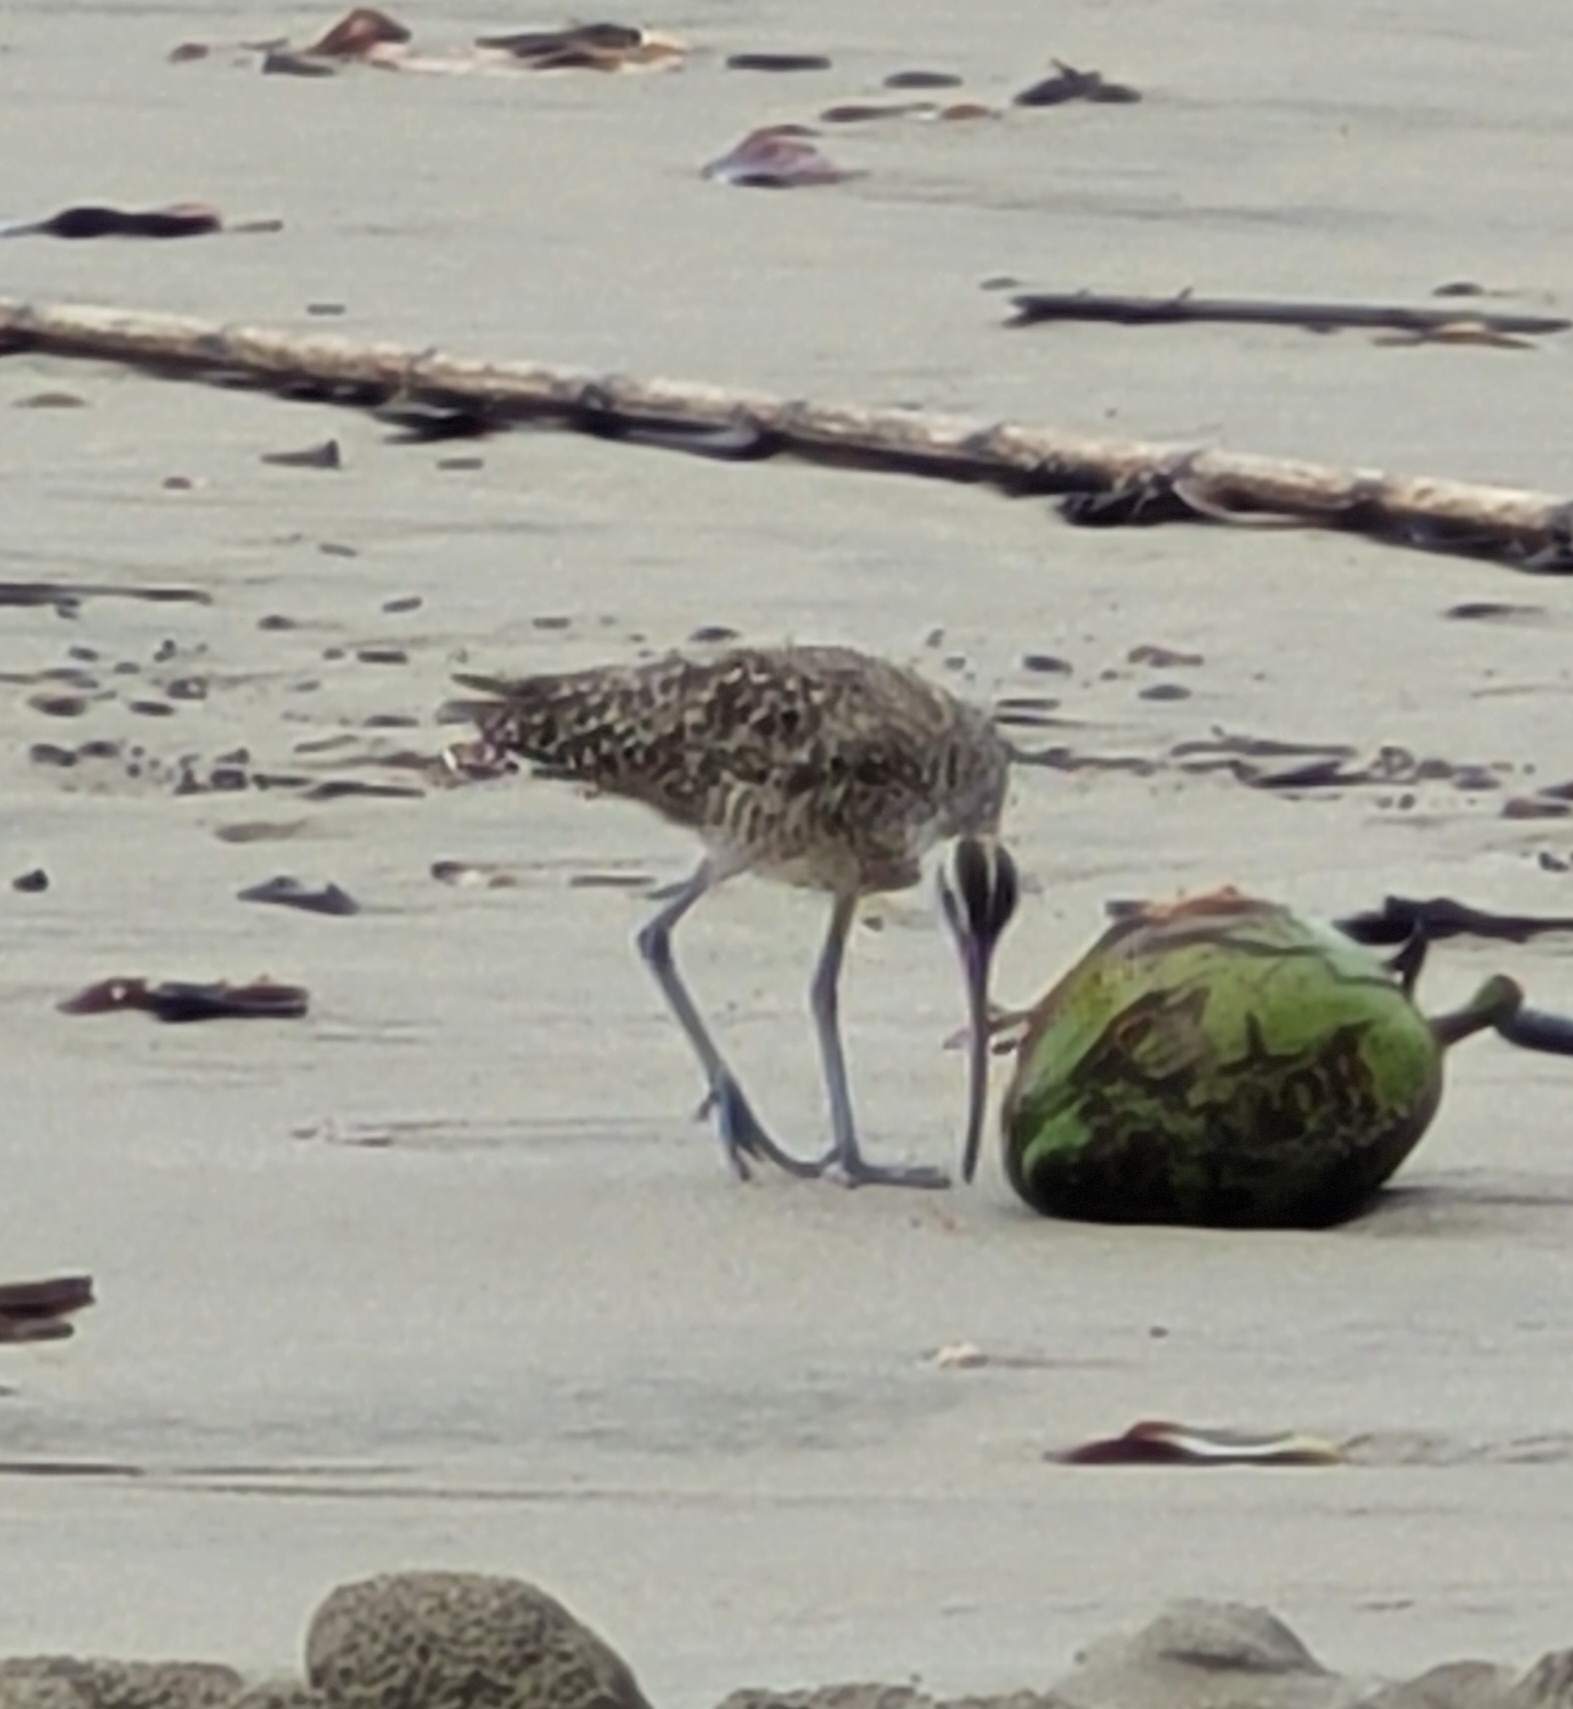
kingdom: Animalia
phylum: Chordata
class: Aves
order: Charadriiformes
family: Scolopacidae
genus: Numenius
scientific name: Numenius phaeopus
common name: Whimbrel
